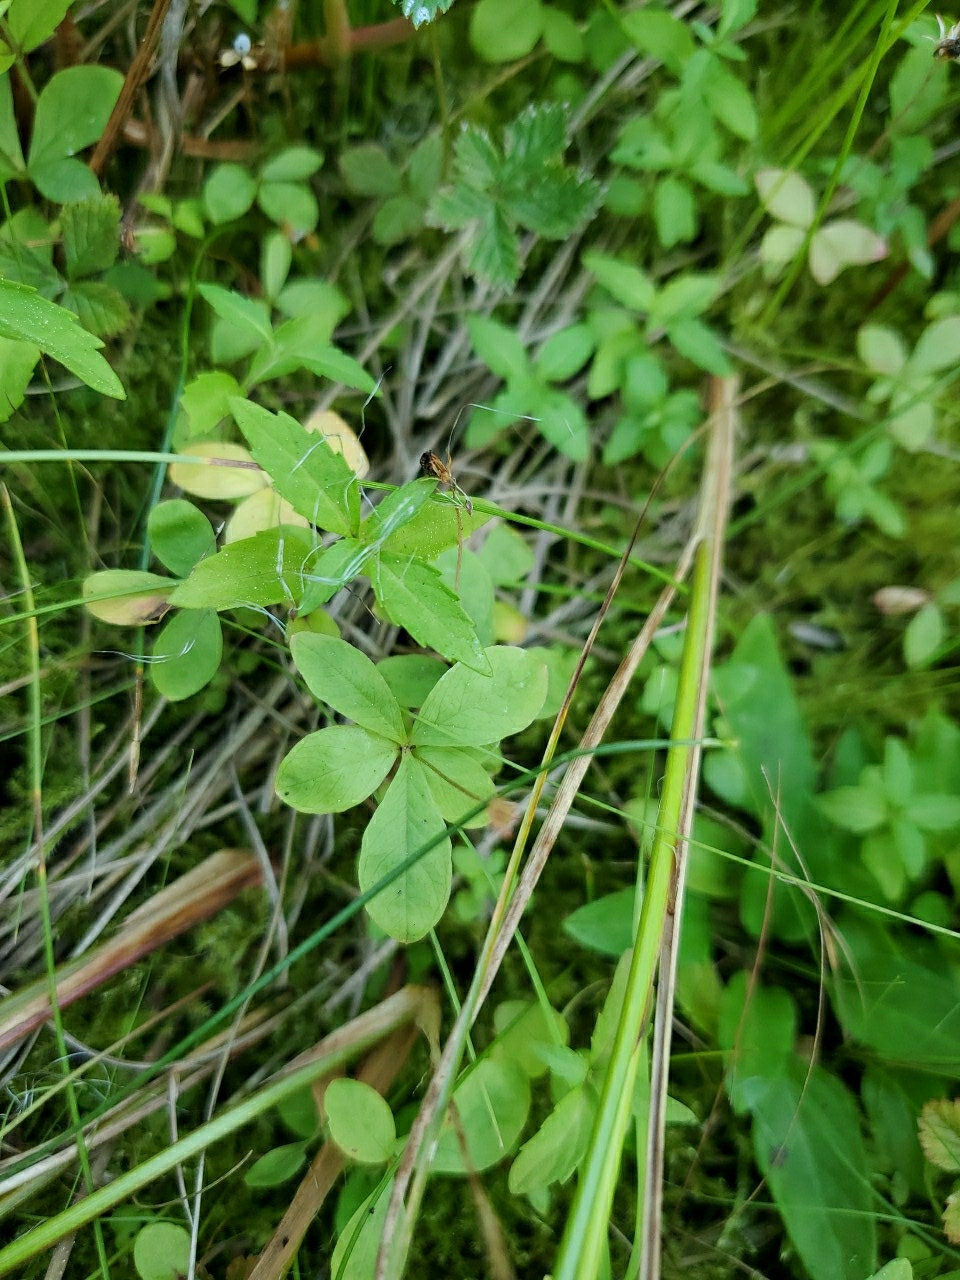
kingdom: Plantae
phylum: Tracheophyta
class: Magnoliopsida
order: Ericales
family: Primulaceae
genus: Lysimachia
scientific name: Lysimachia europaea
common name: Arctic starflower
